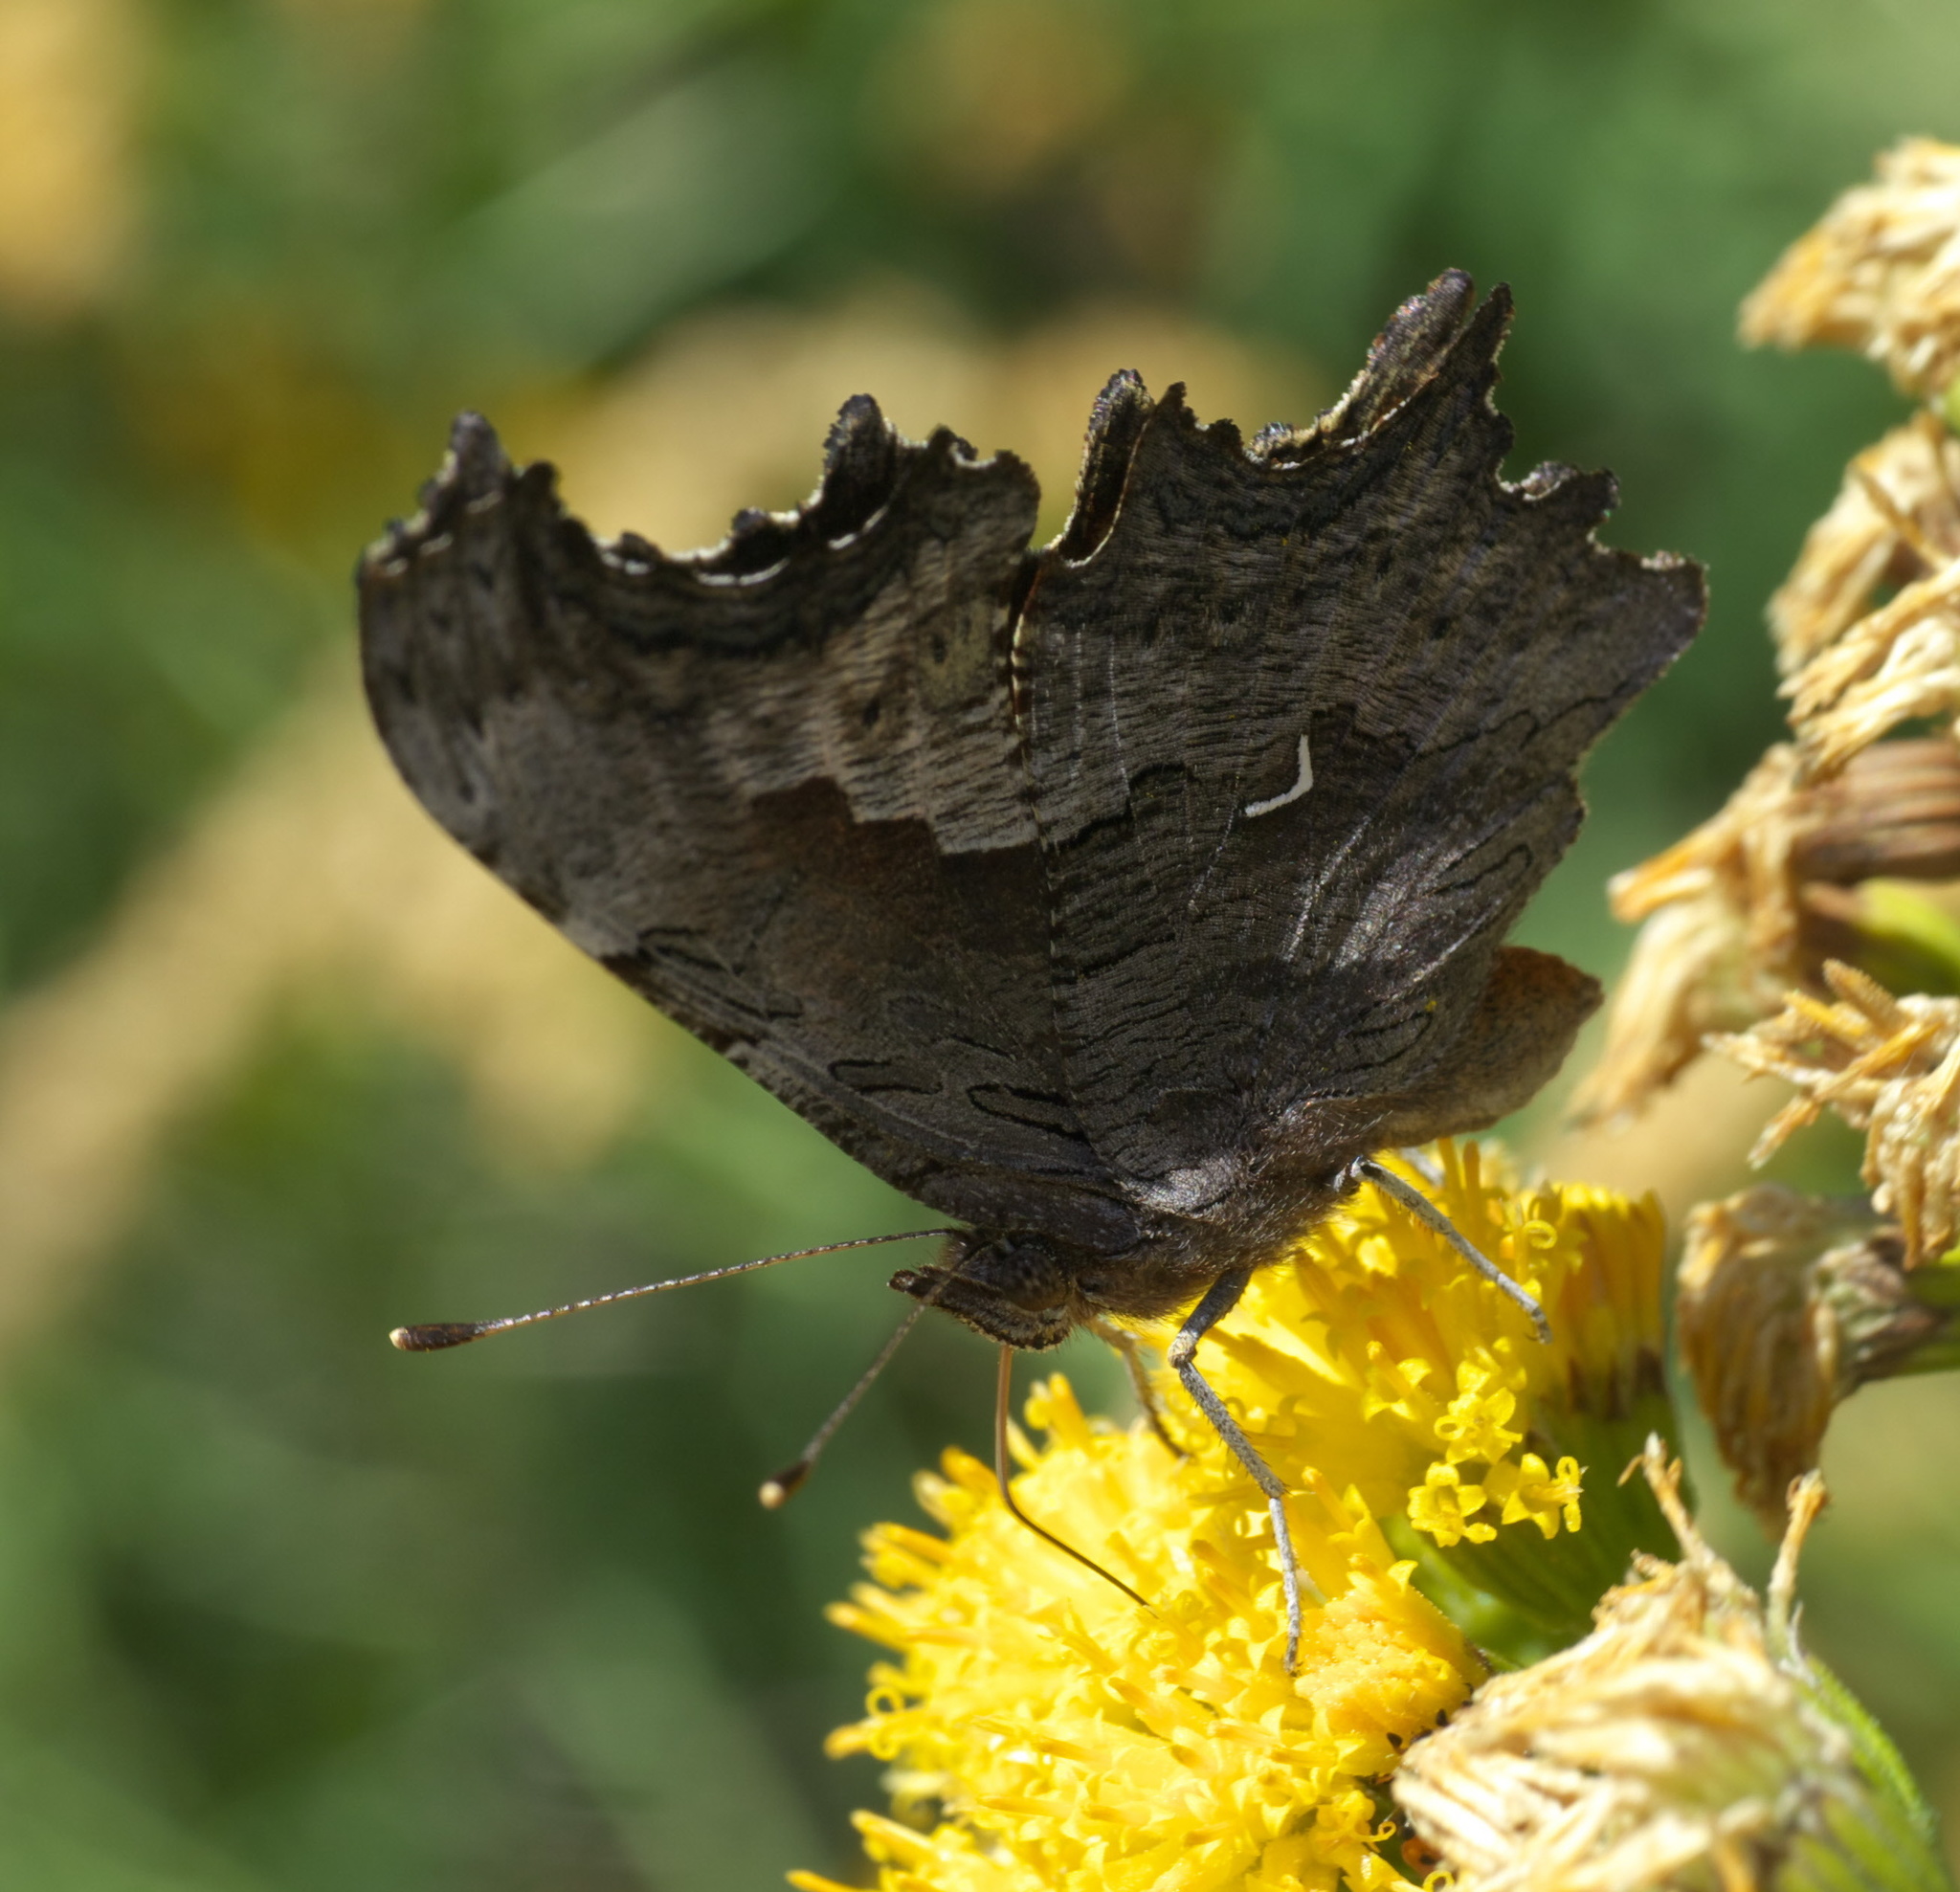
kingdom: Animalia
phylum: Arthropoda
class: Insecta
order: Lepidoptera
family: Nymphalidae
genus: Polygonia
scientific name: Polygonia gracilis
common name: Hoary comma
